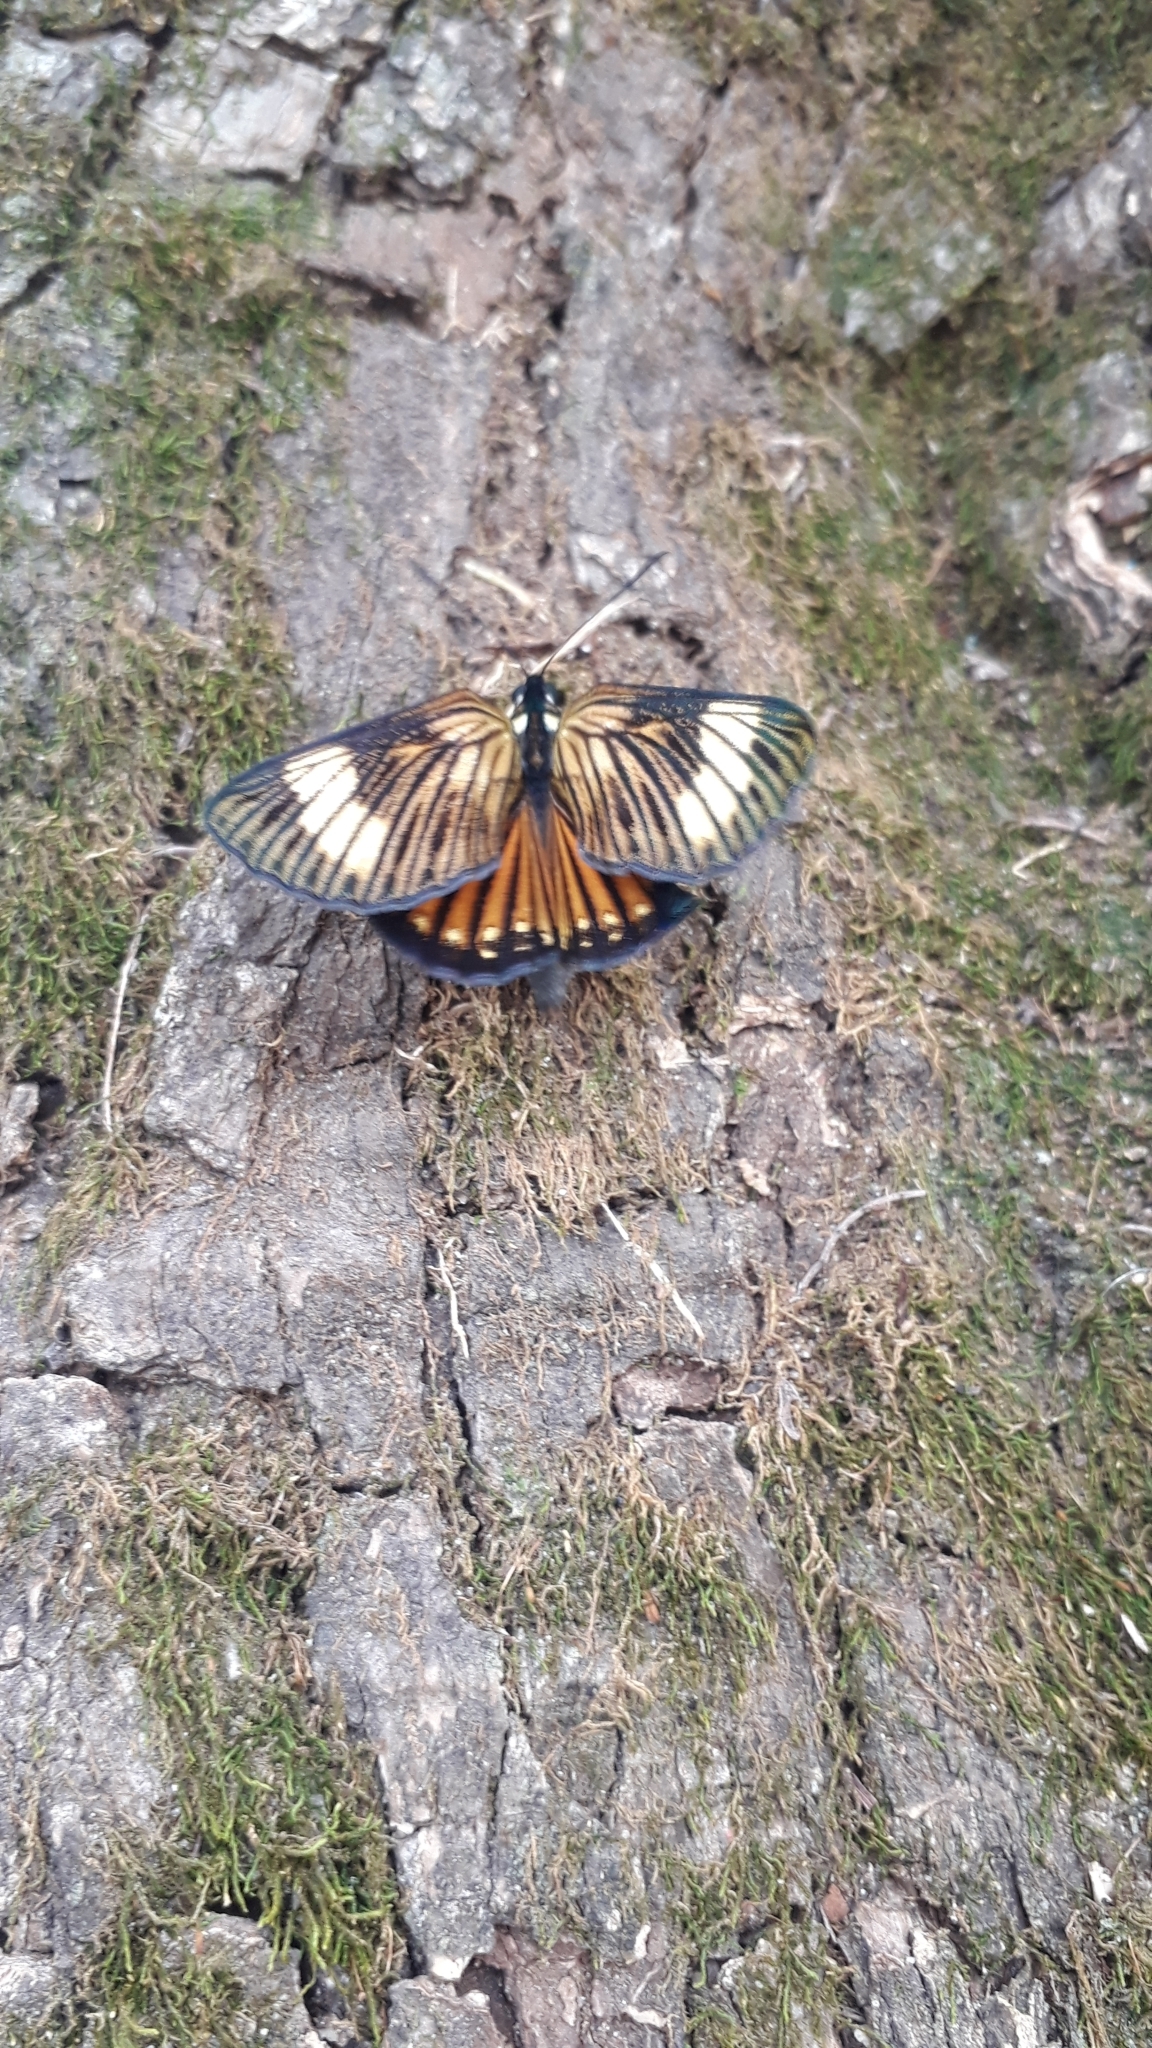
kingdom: Animalia
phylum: Arthropoda
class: Insecta
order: Lepidoptera
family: Castniidae
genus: Imara
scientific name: Imara
